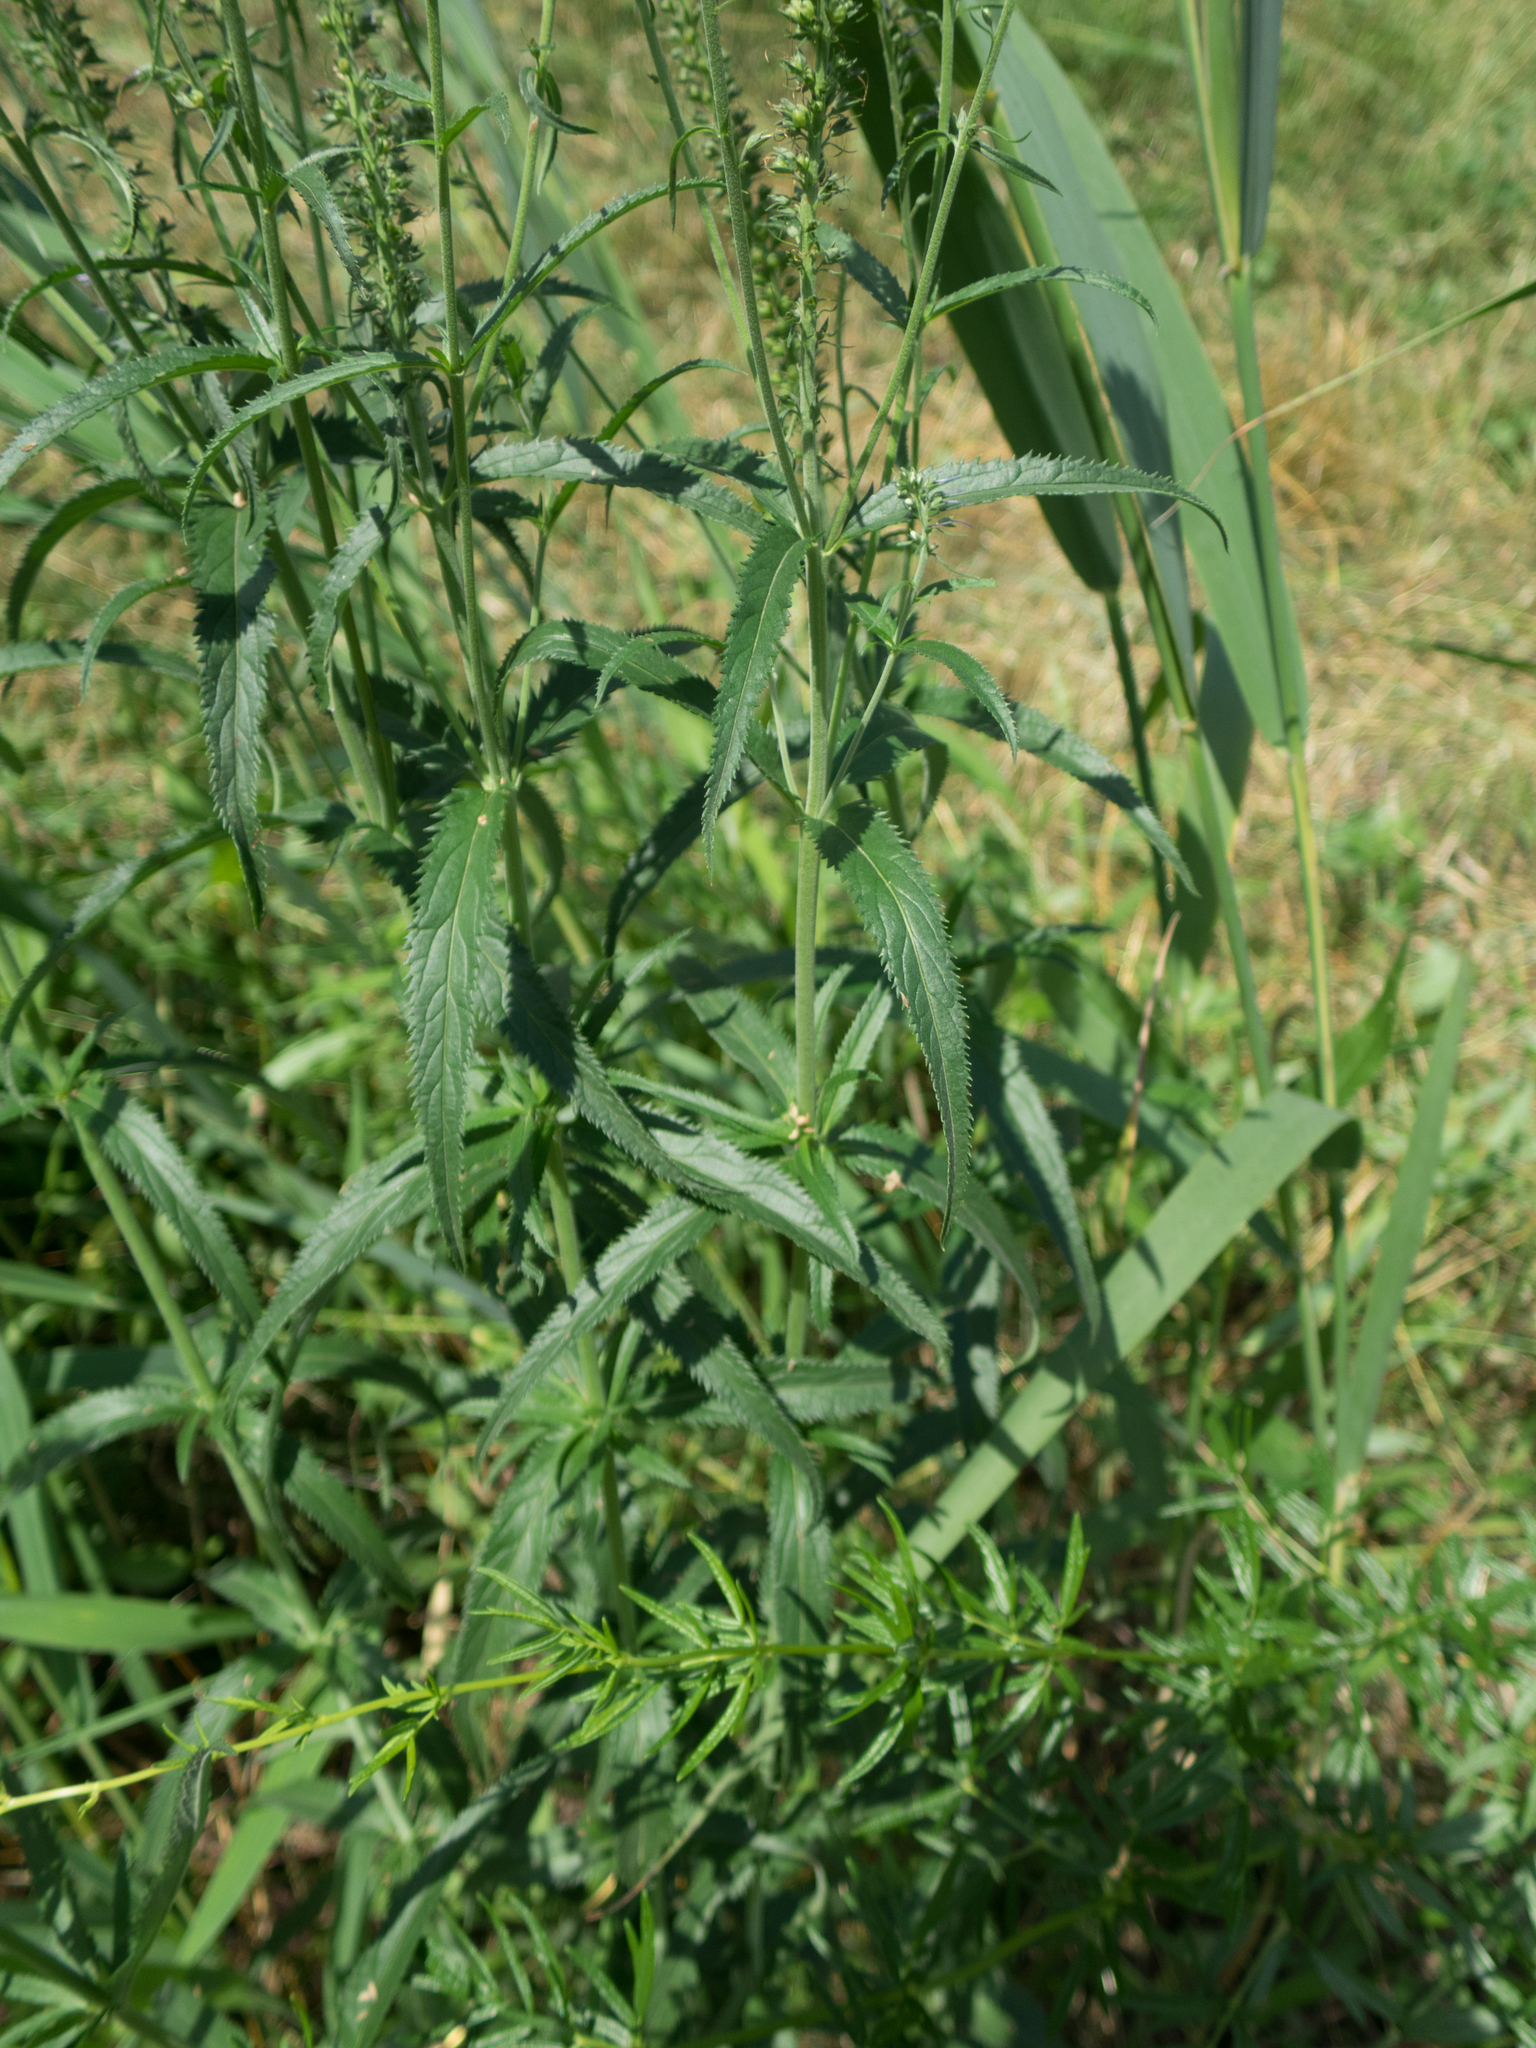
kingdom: Plantae
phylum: Tracheophyta
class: Magnoliopsida
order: Lamiales
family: Plantaginaceae
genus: Veronica
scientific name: Veronica longifolia
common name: Garden speedwell
